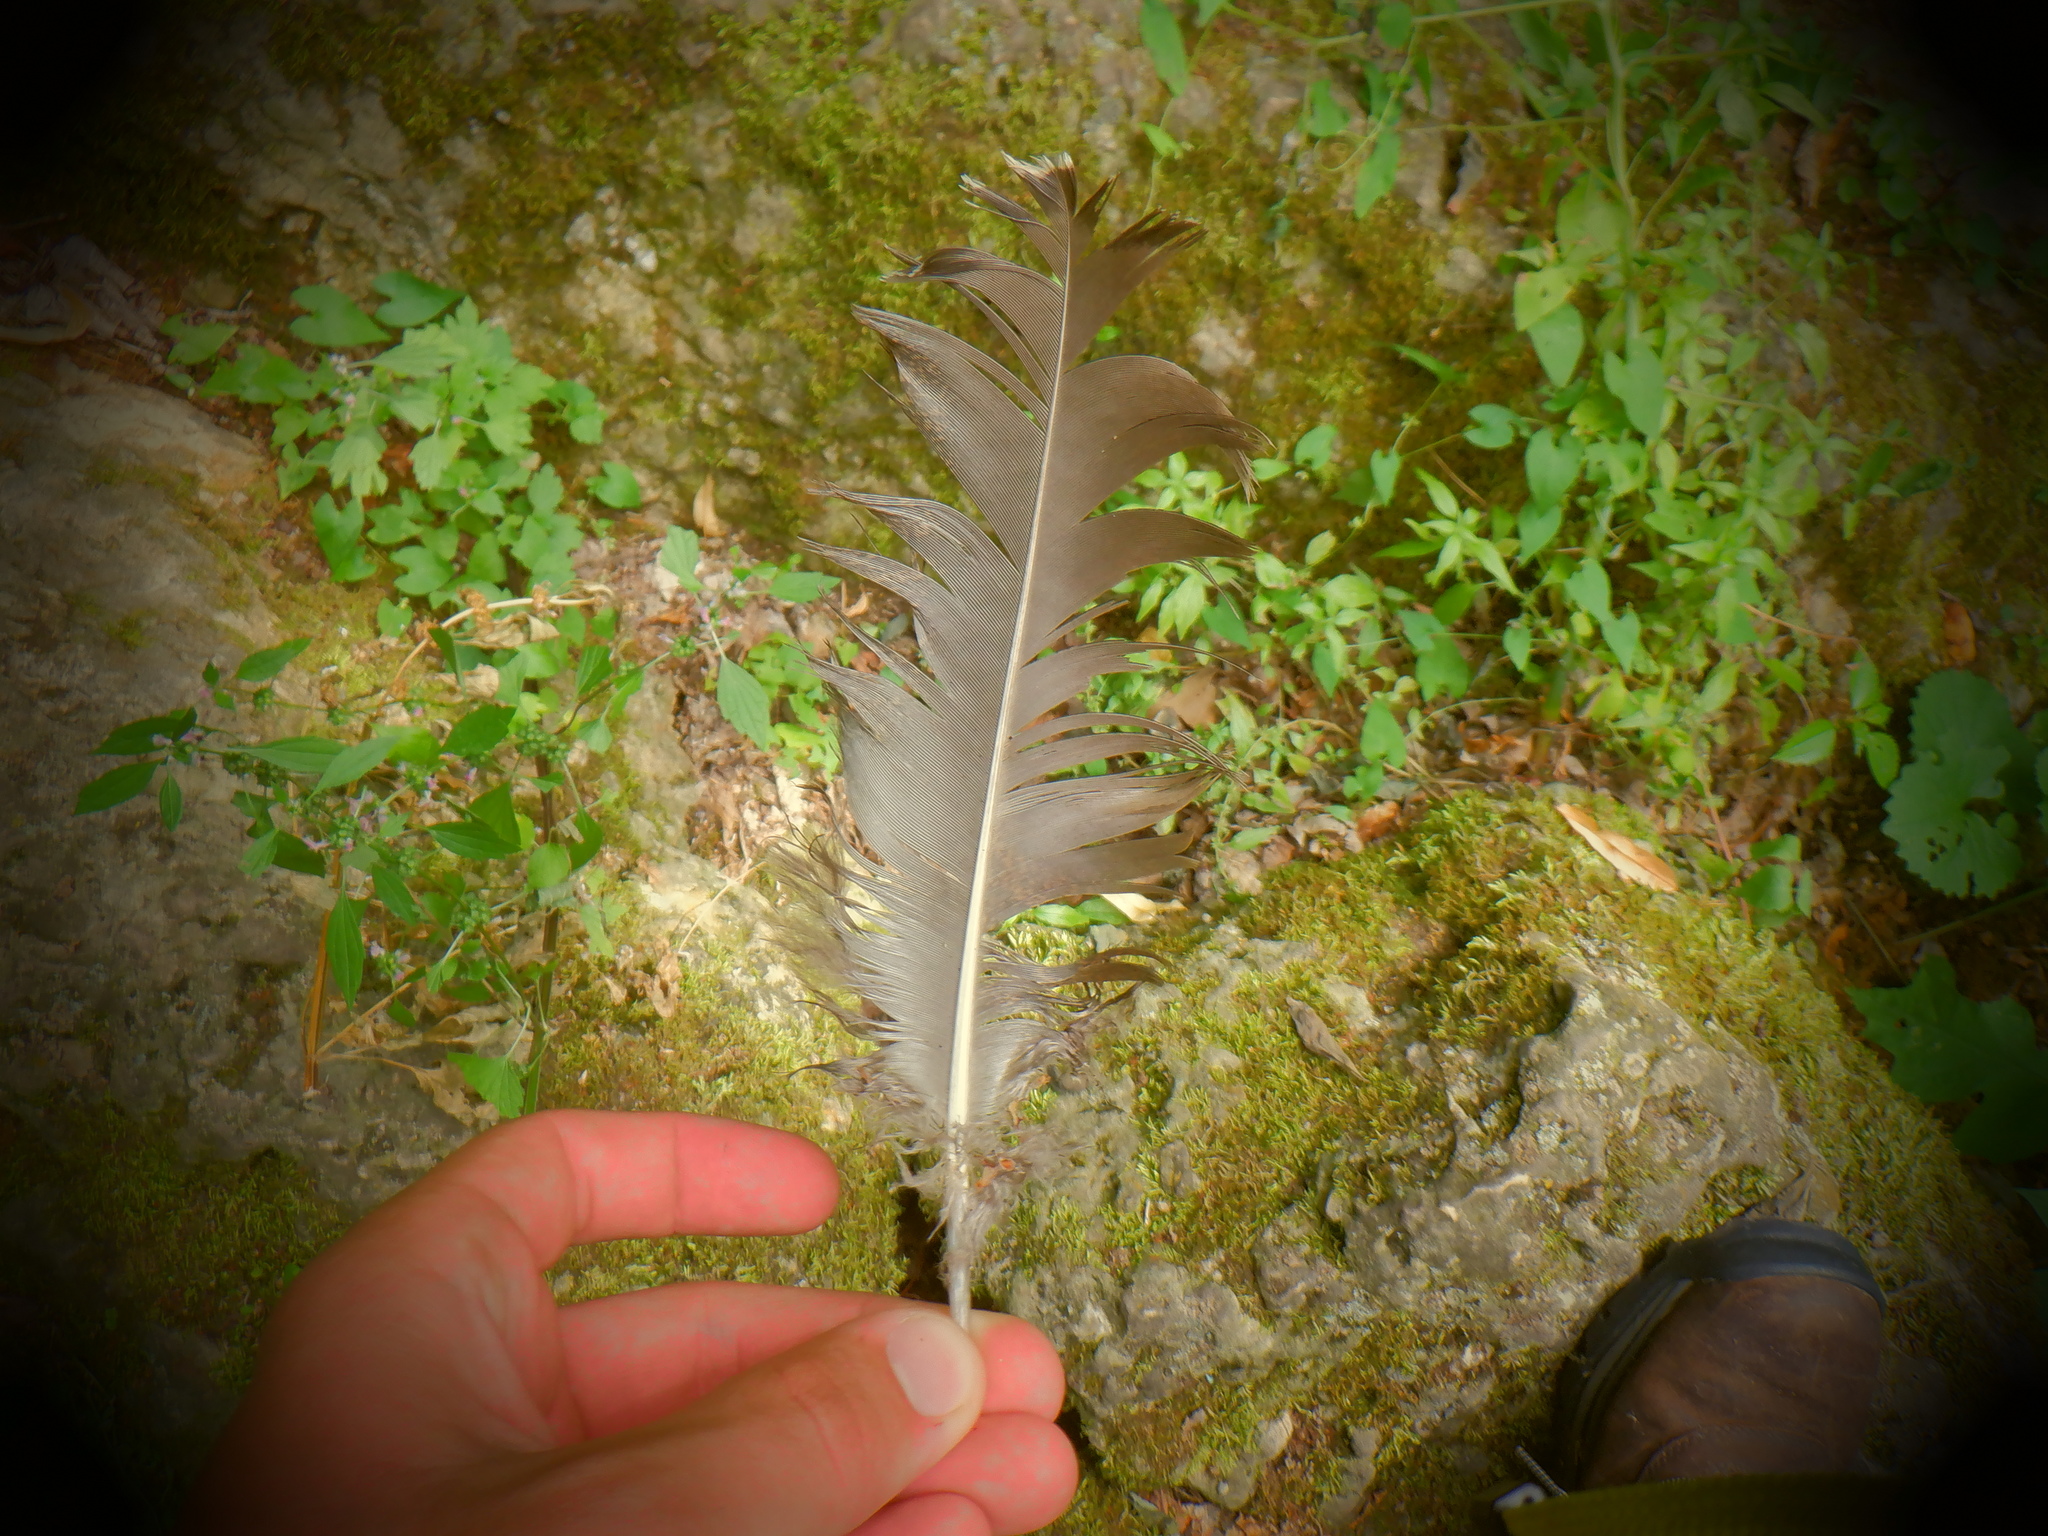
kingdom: Animalia
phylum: Chordata
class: Aves
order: Galliformes
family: Phasianidae
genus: Meleagris
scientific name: Meleagris gallopavo
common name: Wild turkey
